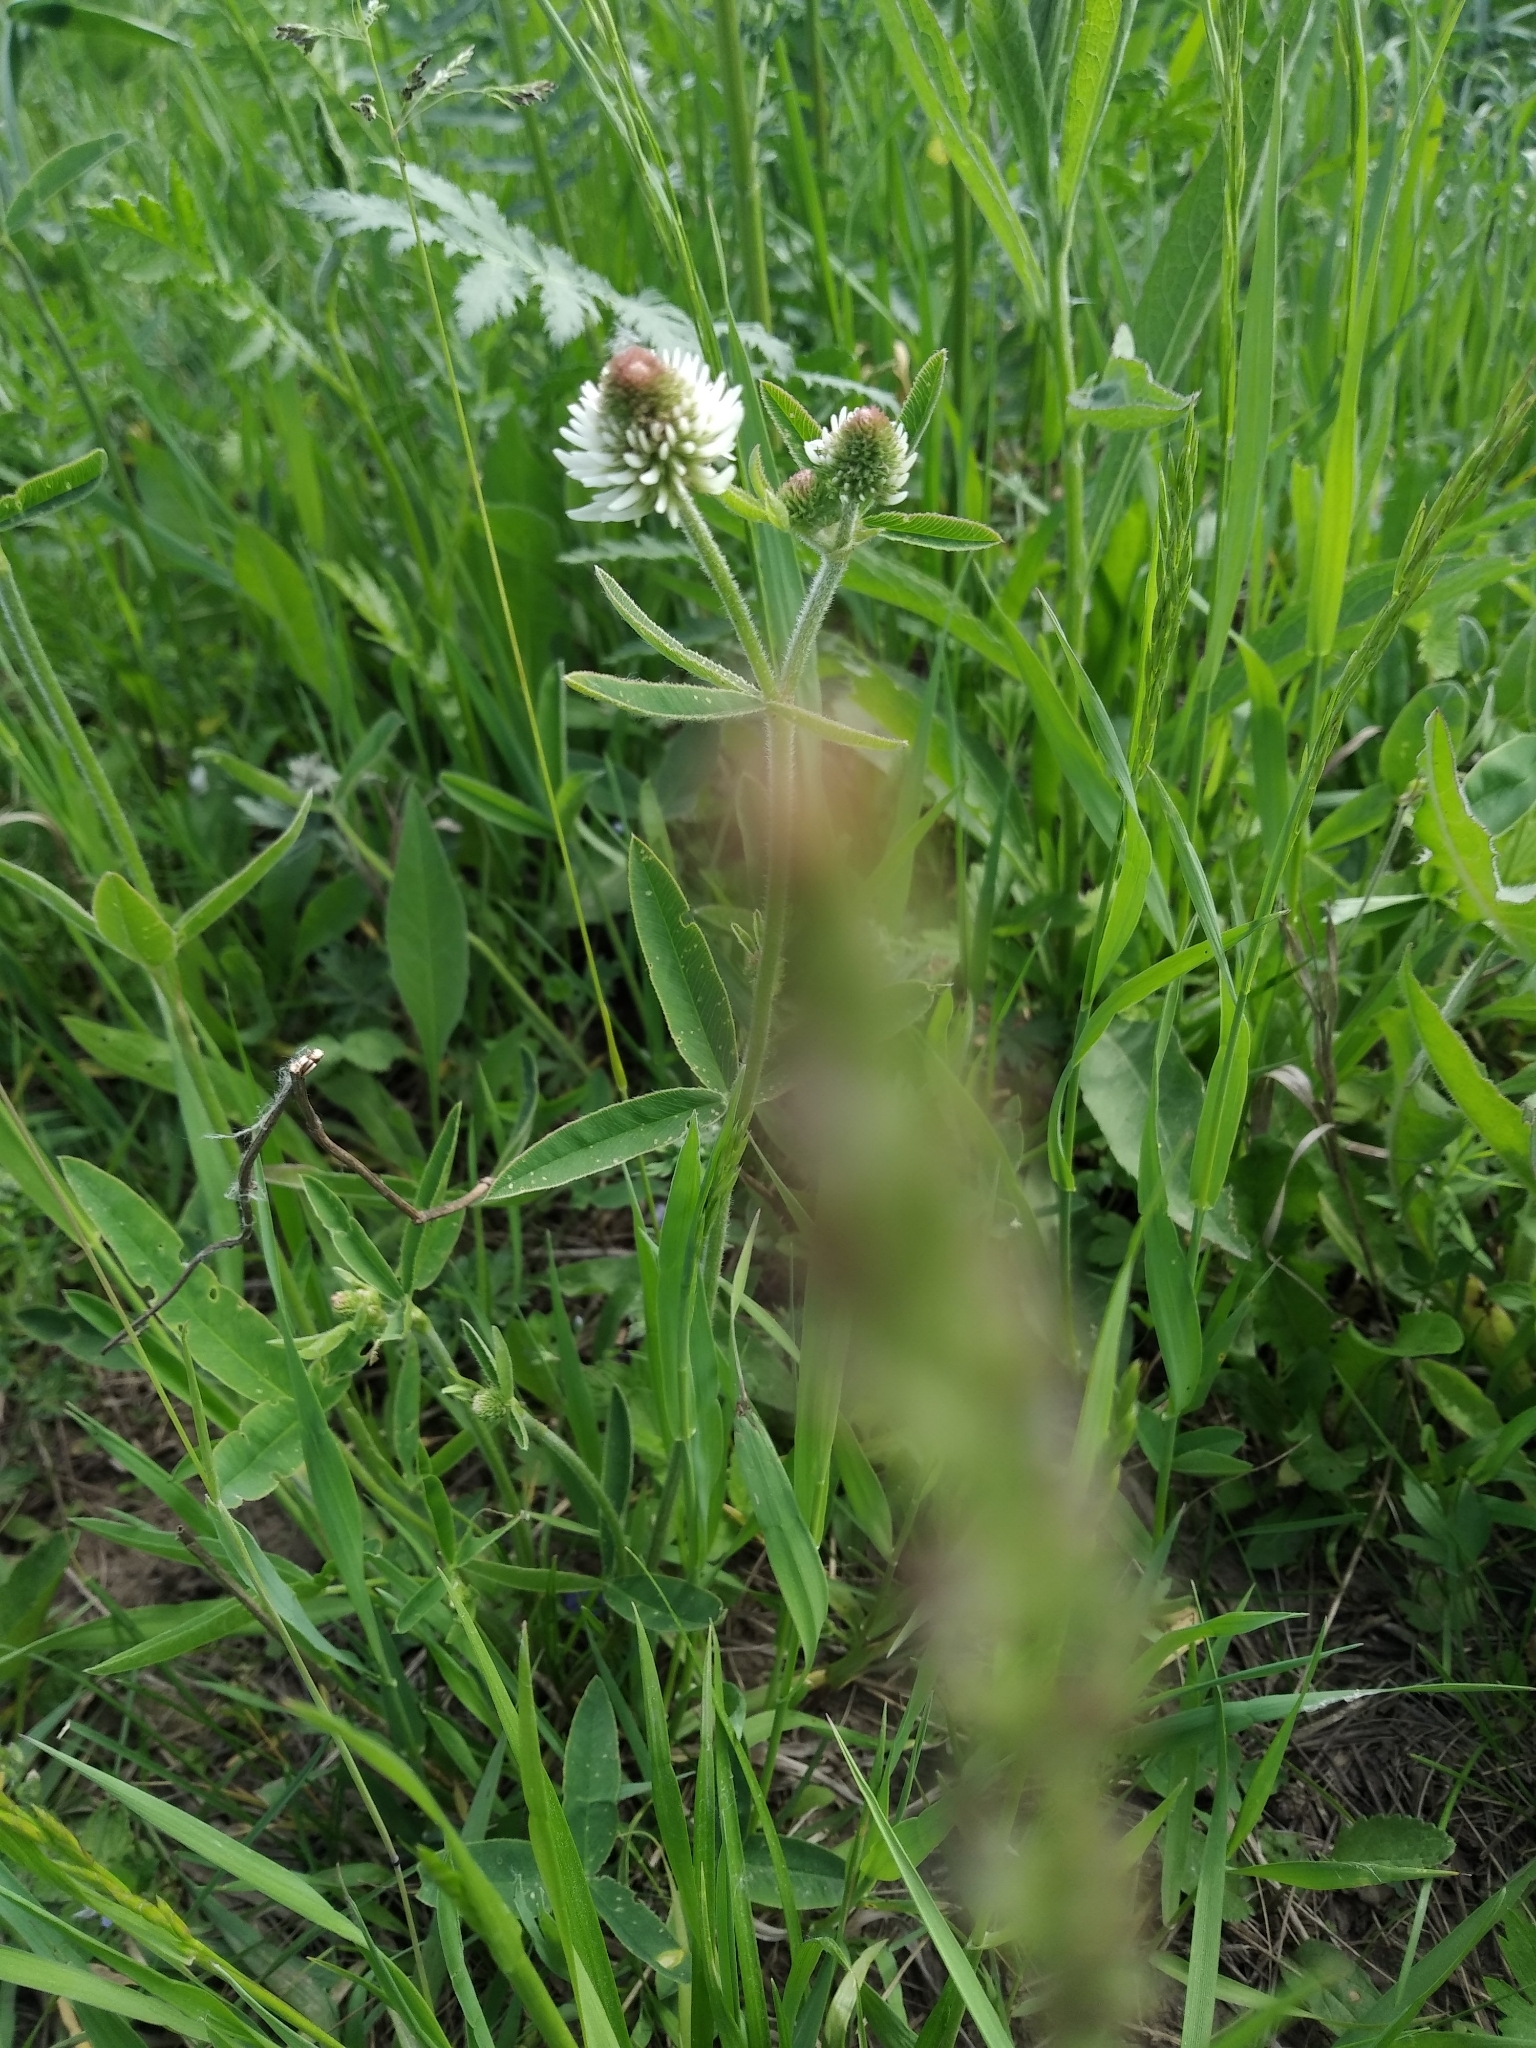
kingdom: Plantae
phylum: Tracheophyta
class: Magnoliopsida
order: Fabales
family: Fabaceae
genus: Trifolium
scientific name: Trifolium montanum
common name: Mountain clover
